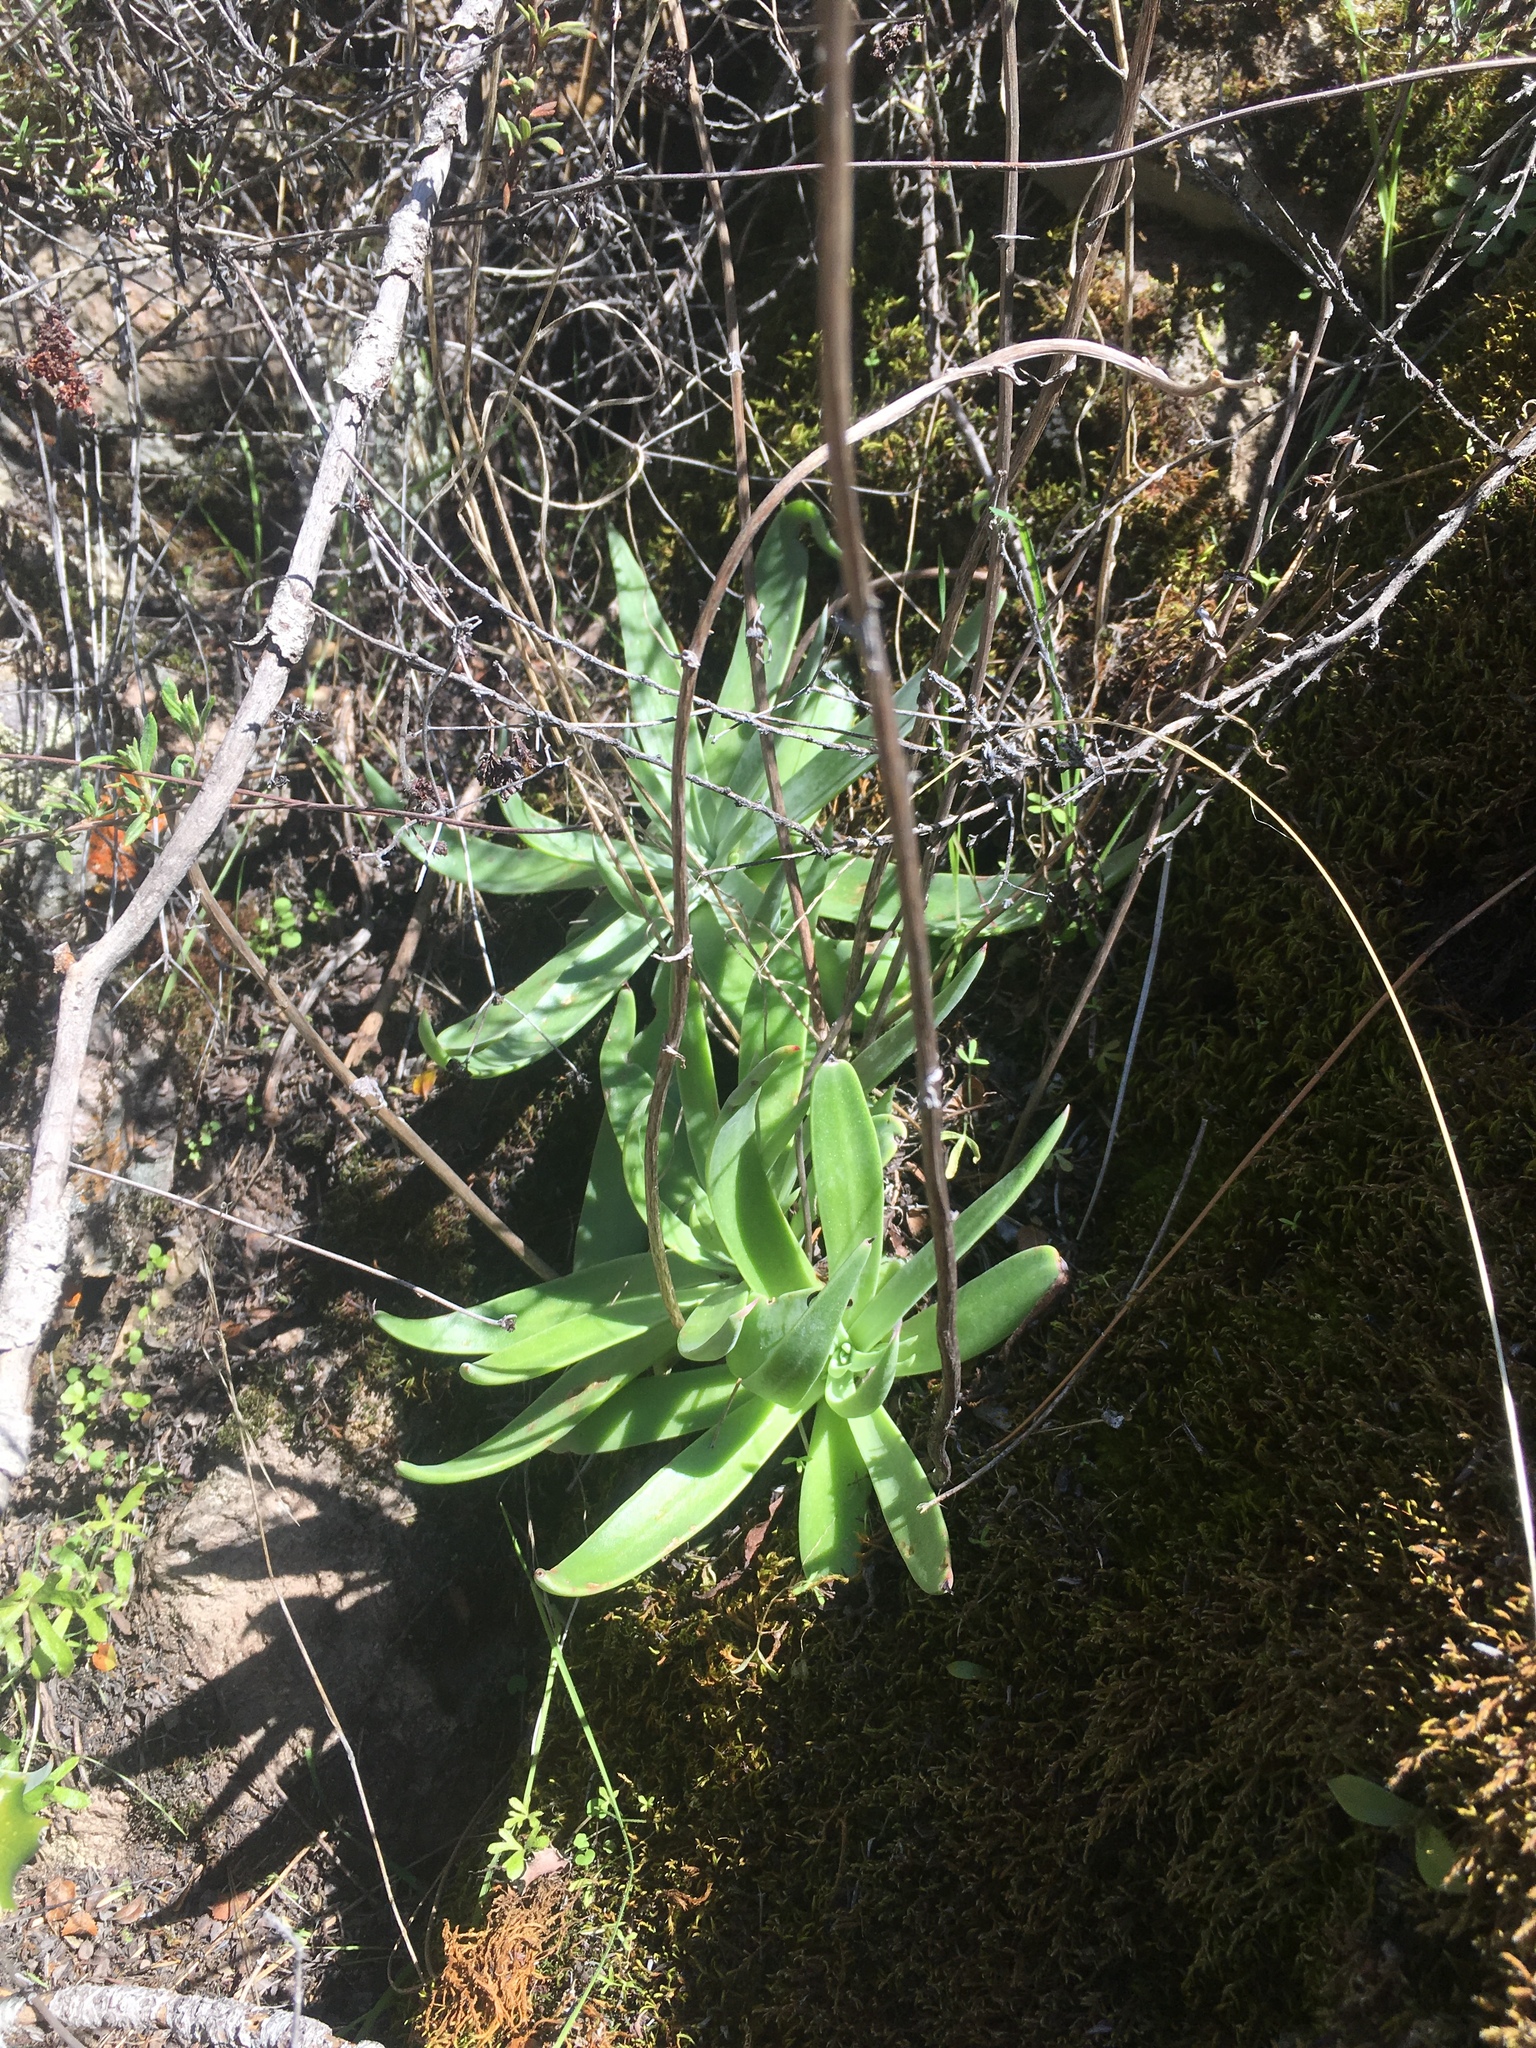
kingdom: Plantae
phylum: Tracheophyta
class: Magnoliopsida
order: Saxifragales
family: Crassulaceae
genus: Dudleya
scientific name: Dudleya lanceolata
